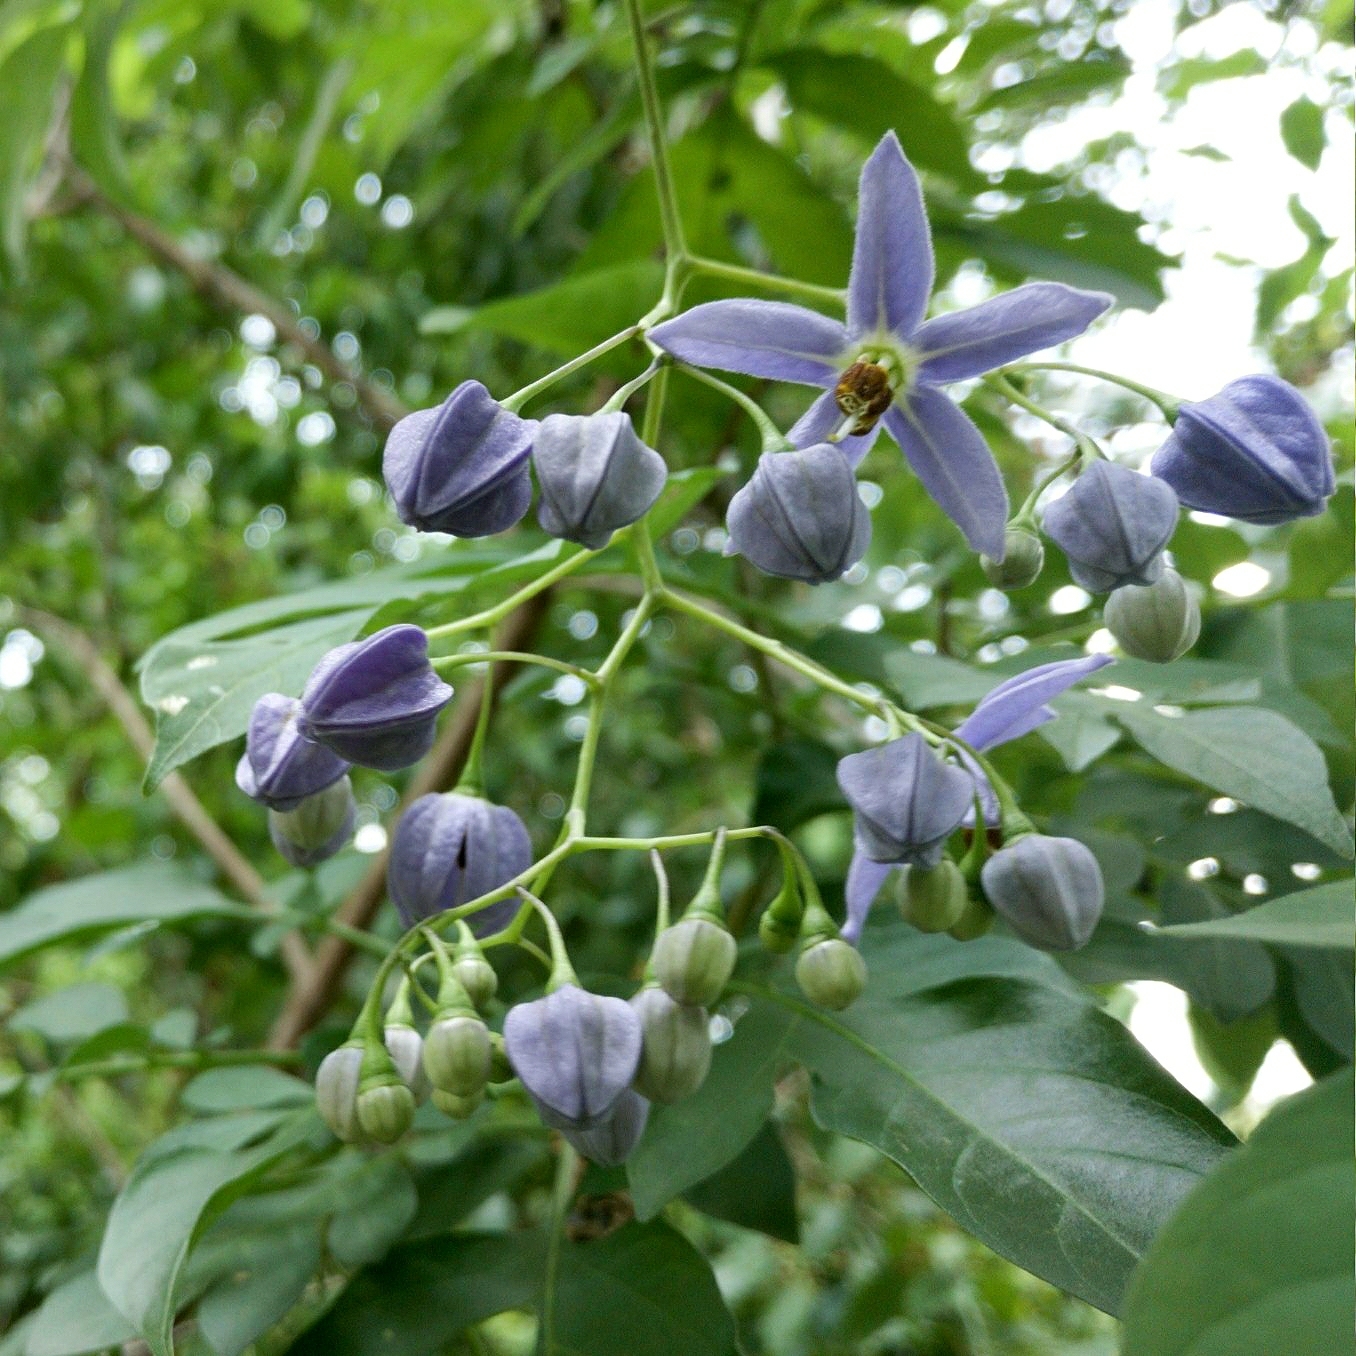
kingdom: Plantae
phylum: Tracheophyta
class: Magnoliopsida
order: Solanales
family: Solanaceae
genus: Solanum
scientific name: Solanum seaforthianum
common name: Brazilian nightshade
